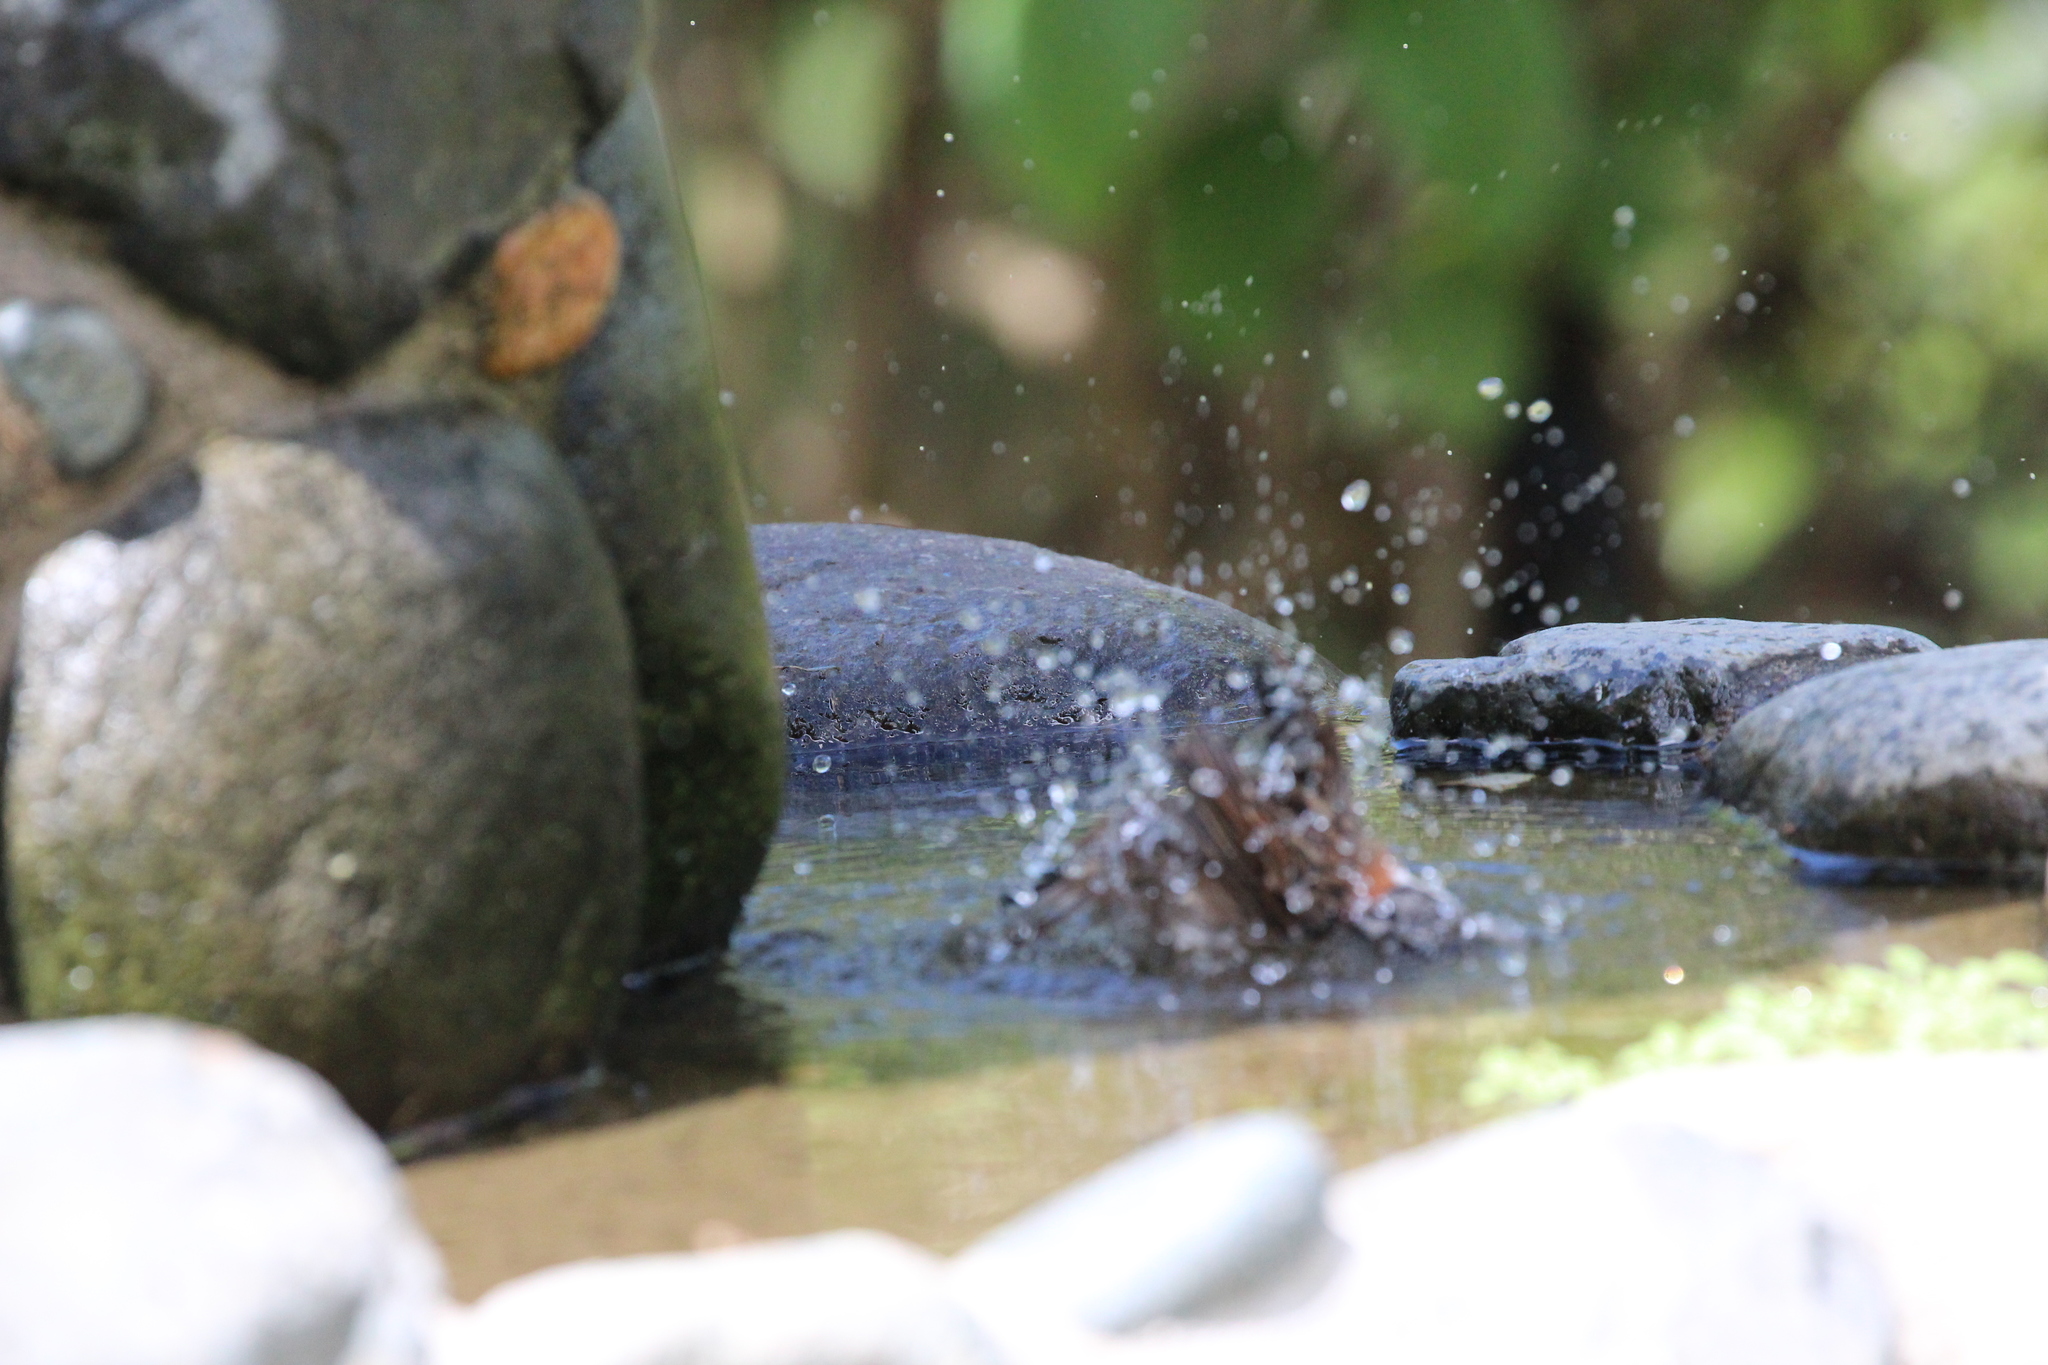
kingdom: Animalia
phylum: Chordata
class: Aves
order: Passeriformes
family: Passerellidae
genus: Zonotrichia
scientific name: Zonotrichia capensis
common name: Rufous-collared sparrow
